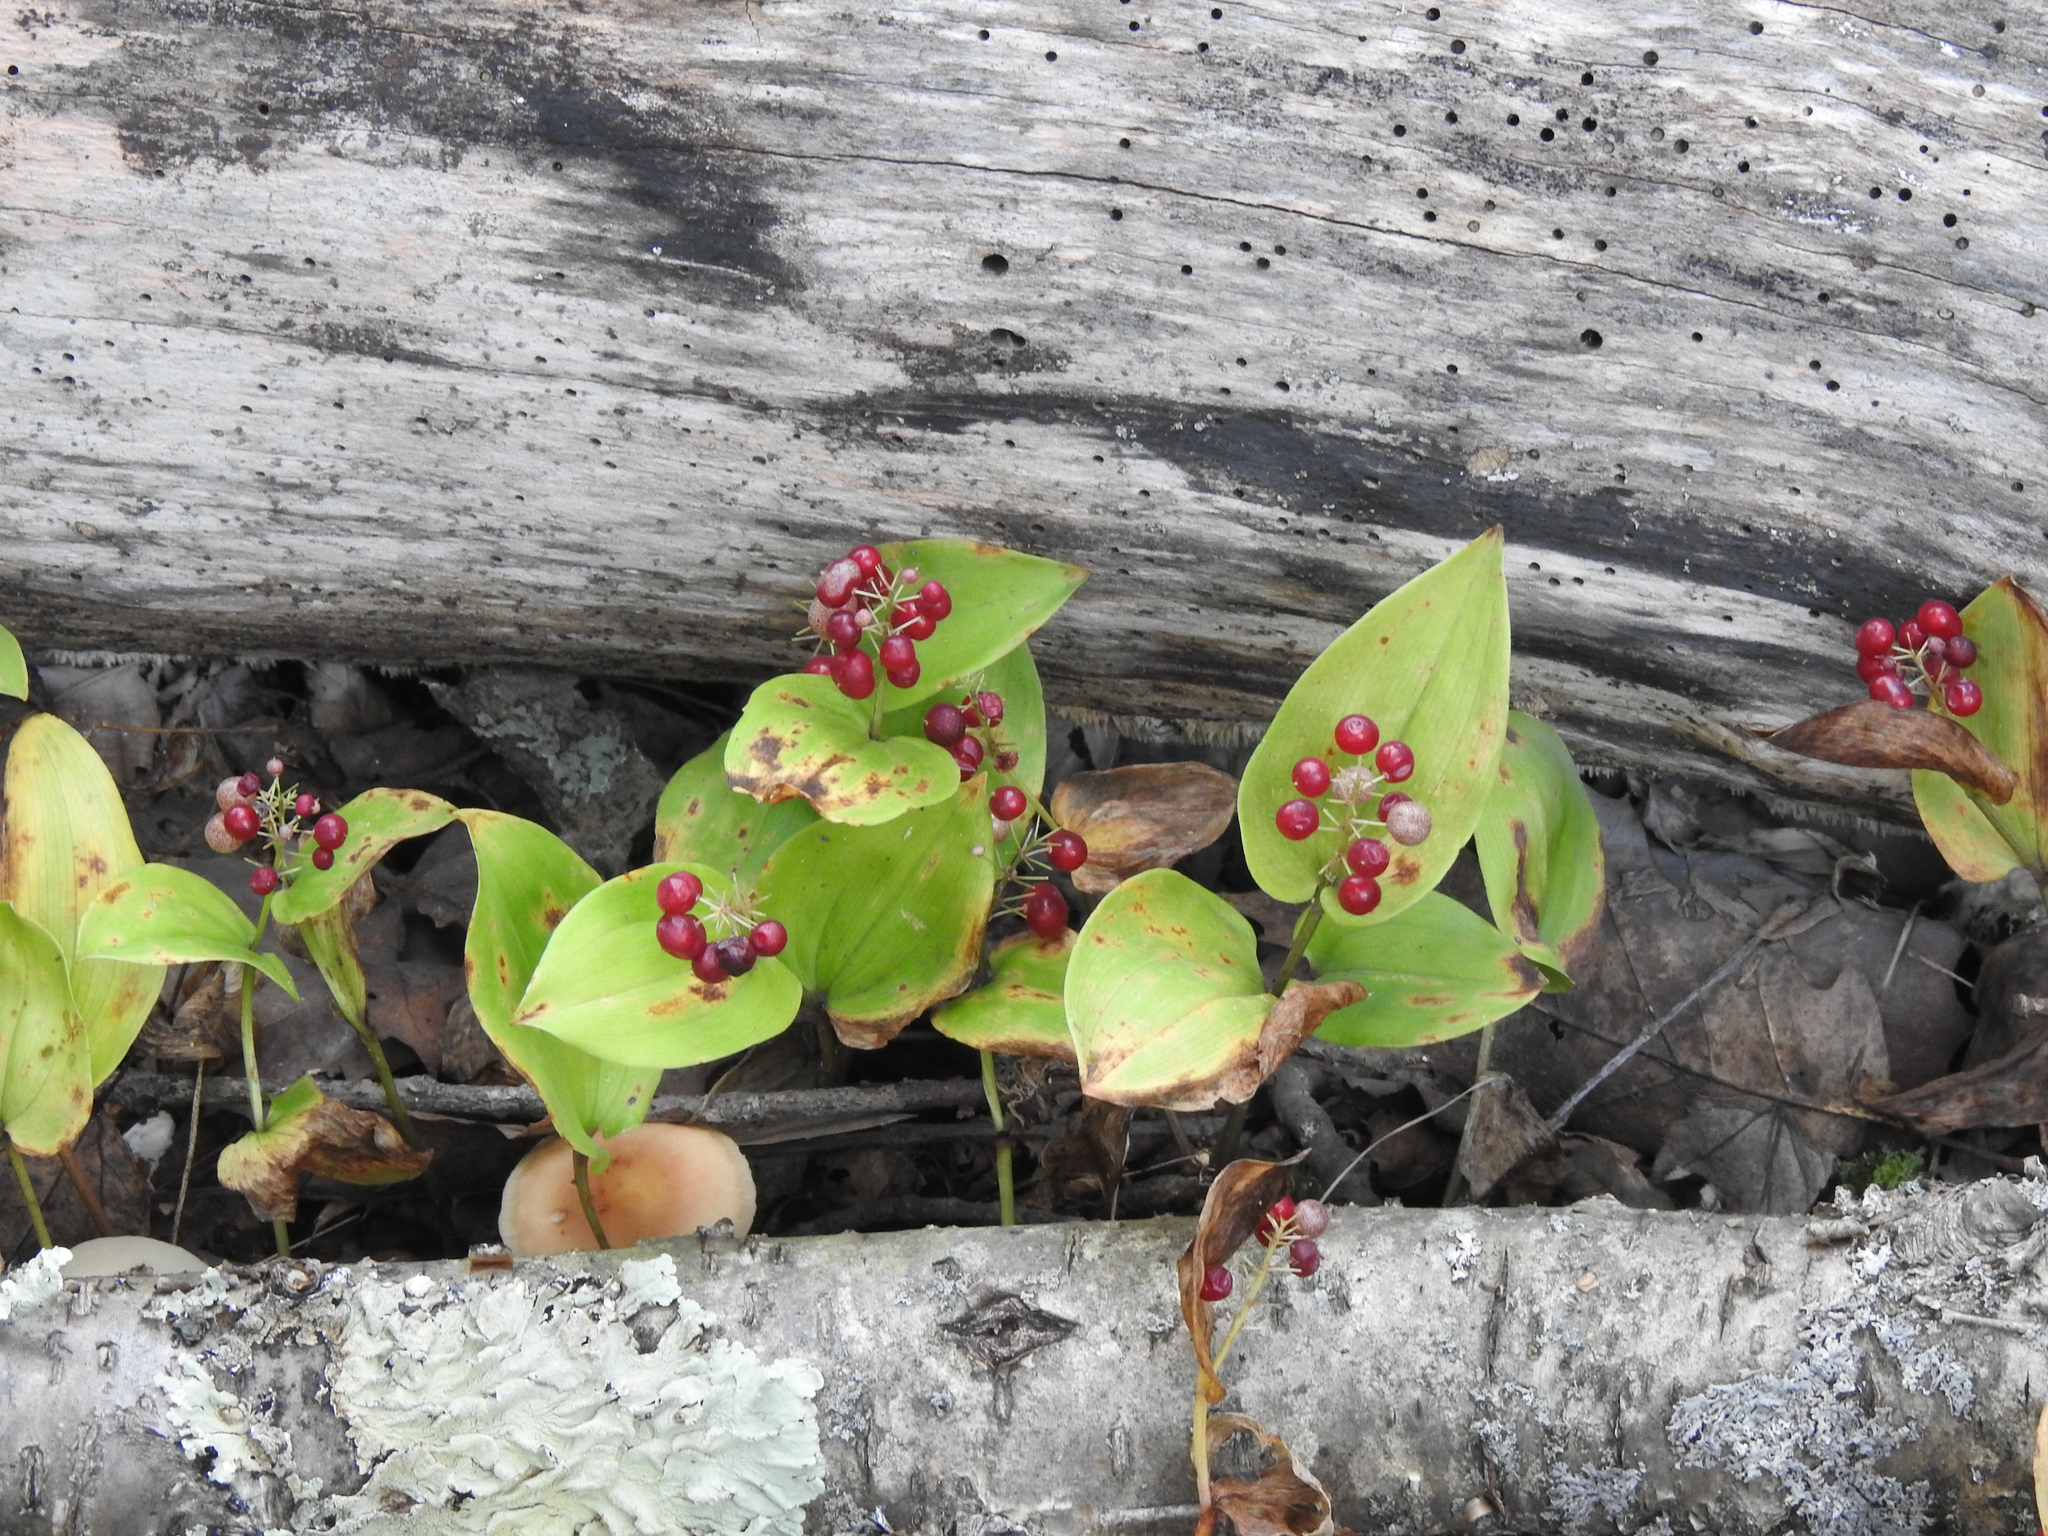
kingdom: Plantae
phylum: Tracheophyta
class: Liliopsida
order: Asparagales
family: Asparagaceae
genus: Maianthemum
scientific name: Maianthemum canadense
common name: False lily-of-the-valley
